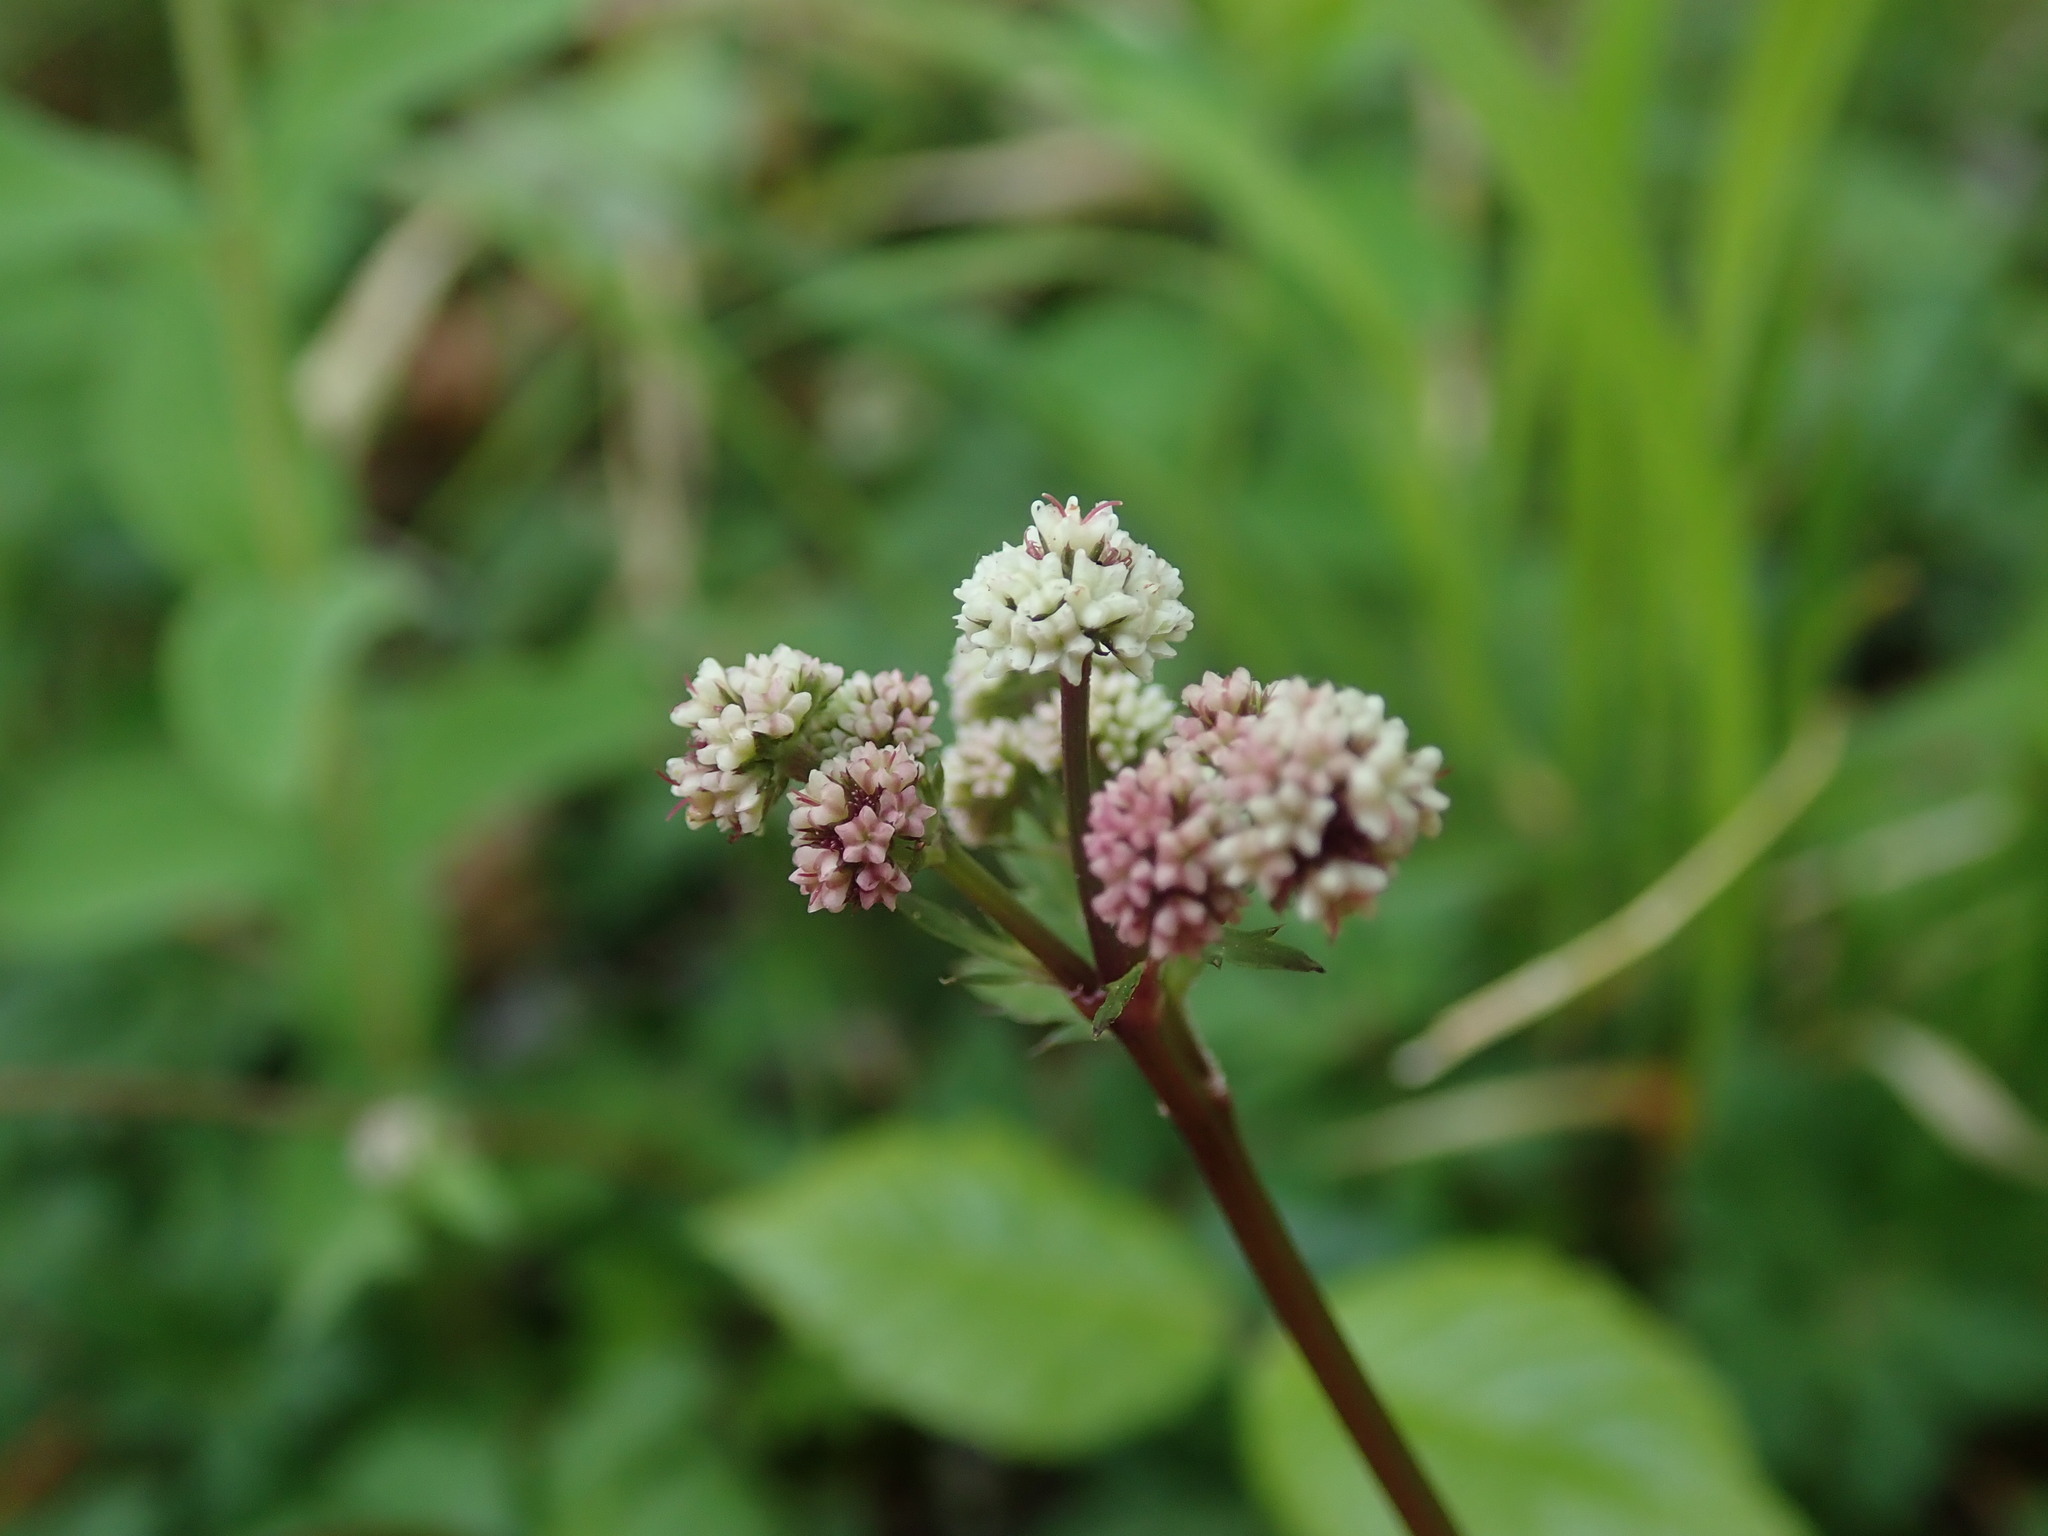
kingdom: Plantae
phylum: Tracheophyta
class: Magnoliopsida
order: Apiales
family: Apiaceae
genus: Sanicula
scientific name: Sanicula europaea
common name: Sanicle
